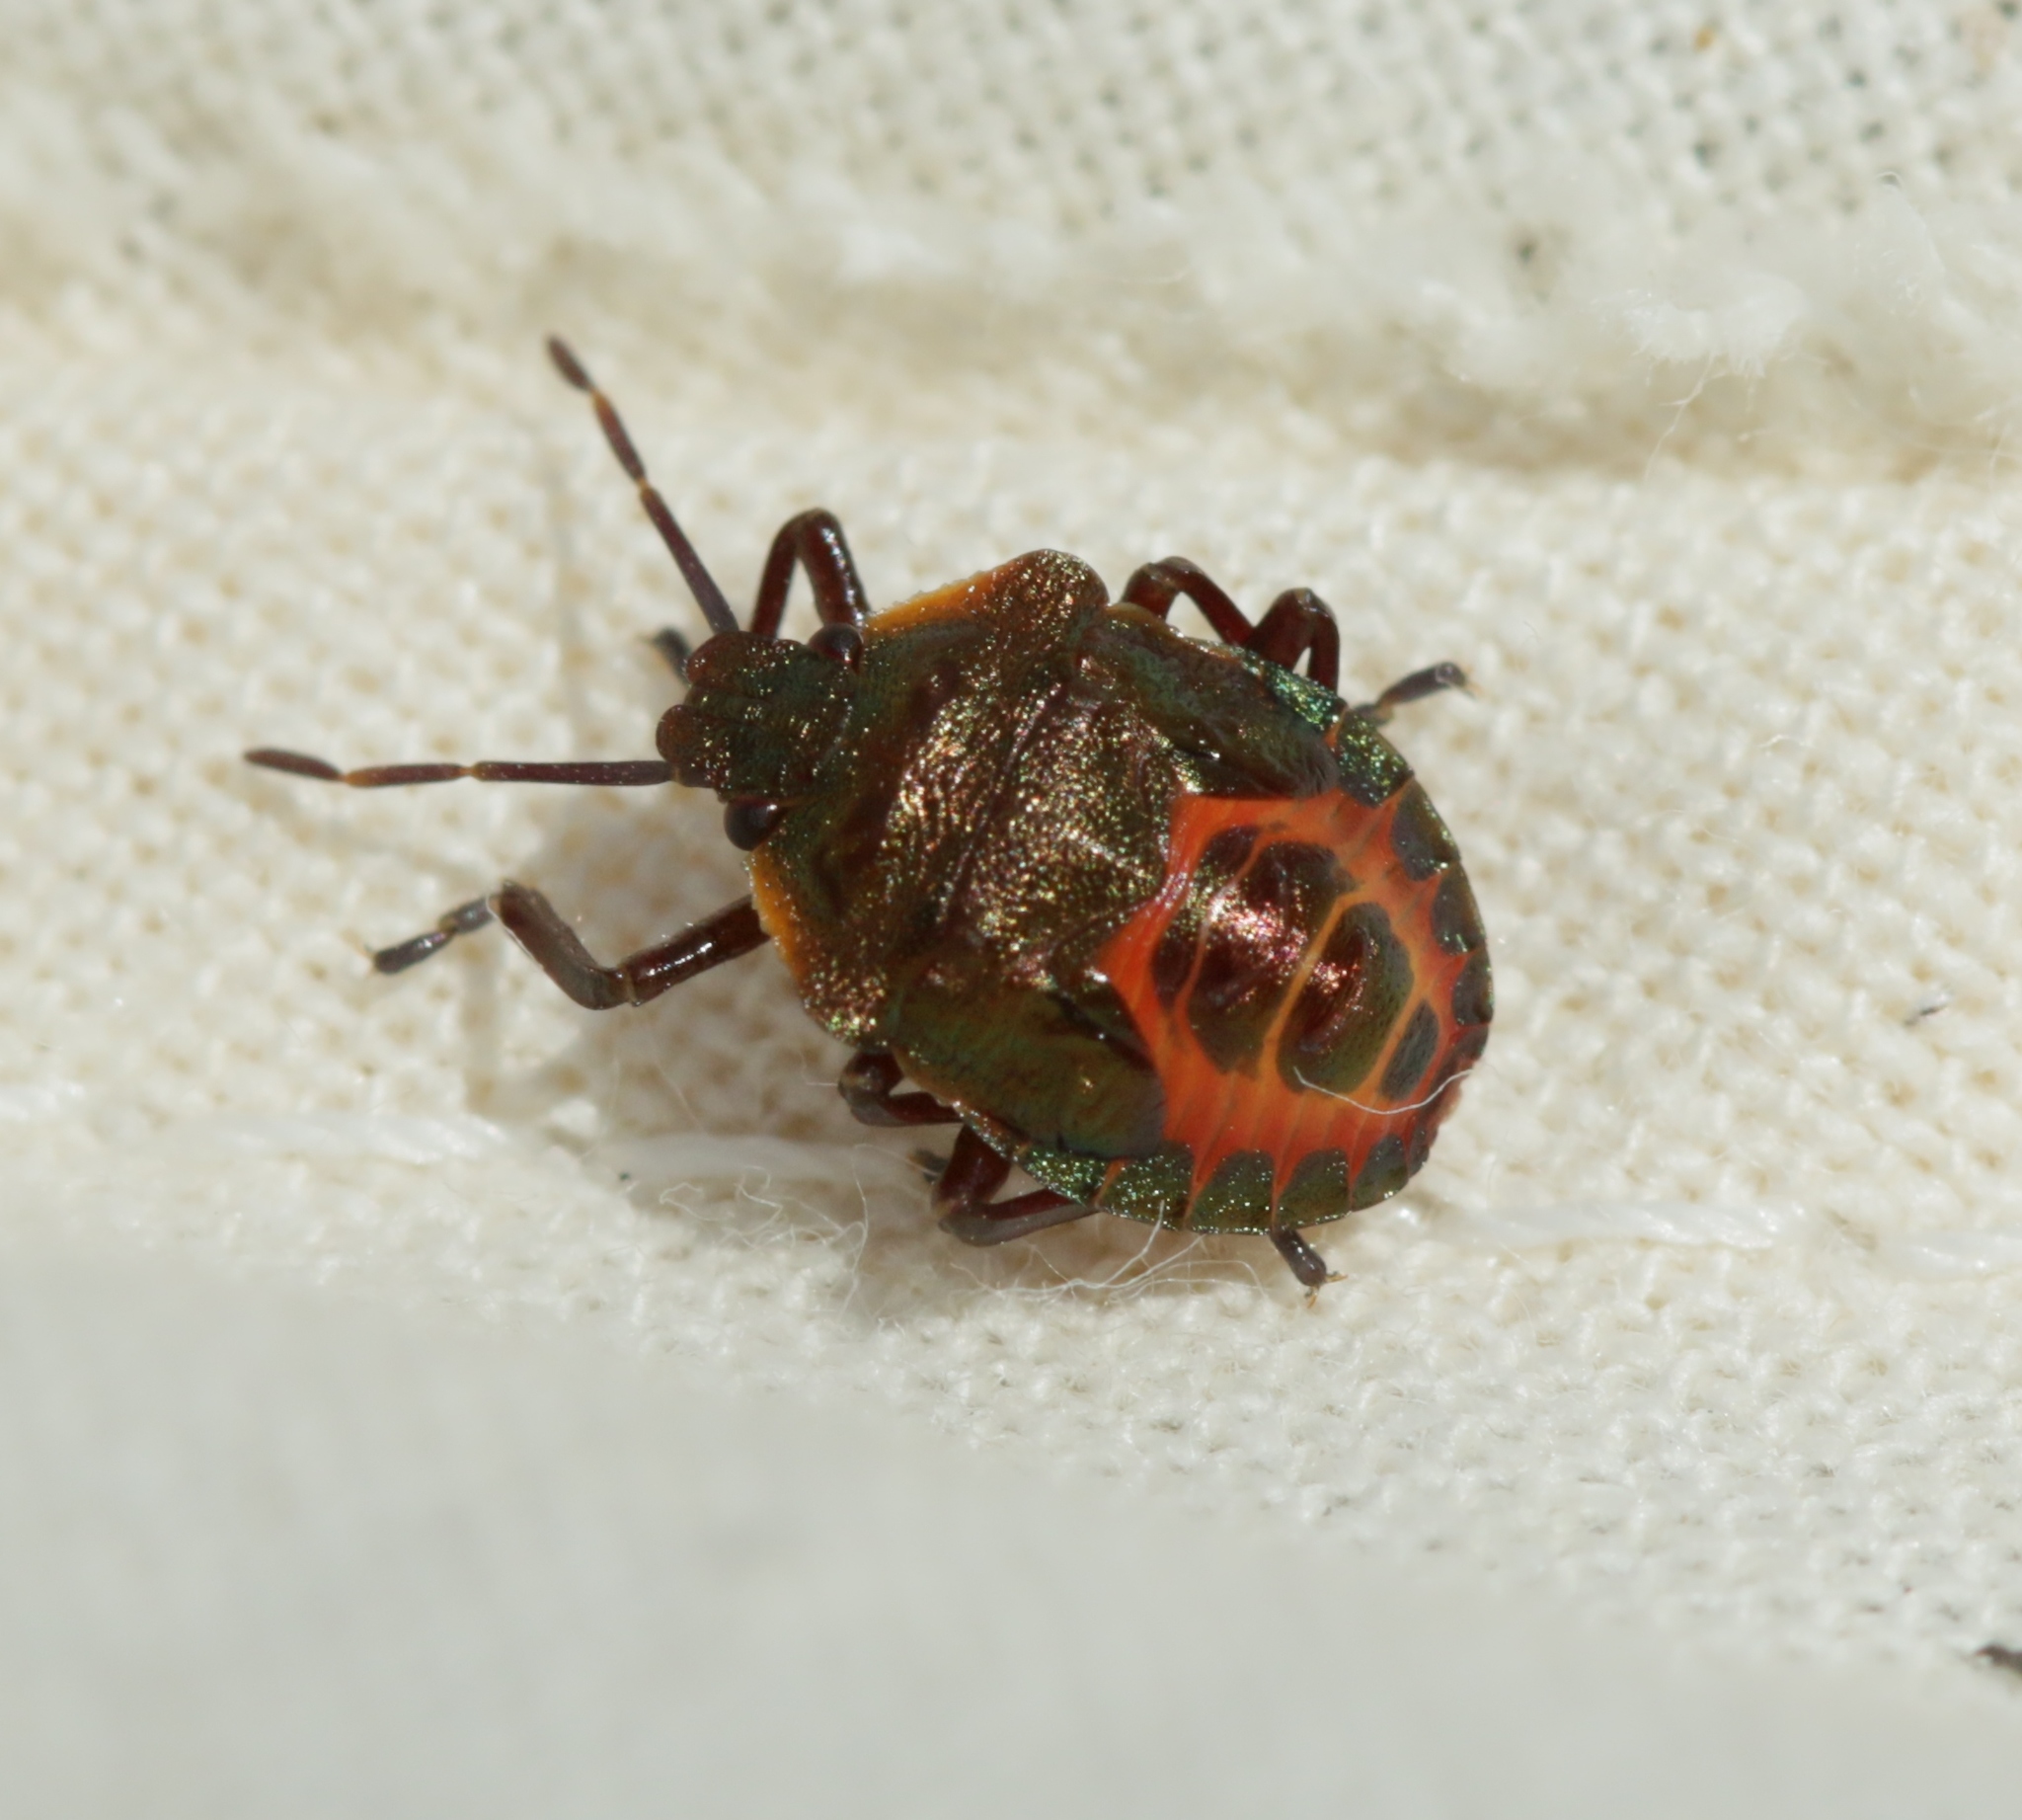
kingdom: Animalia
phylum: Arthropoda
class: Insecta
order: Hemiptera
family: Pentatomidae
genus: Troilus
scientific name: Troilus luridus
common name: Bronze shieldbug
